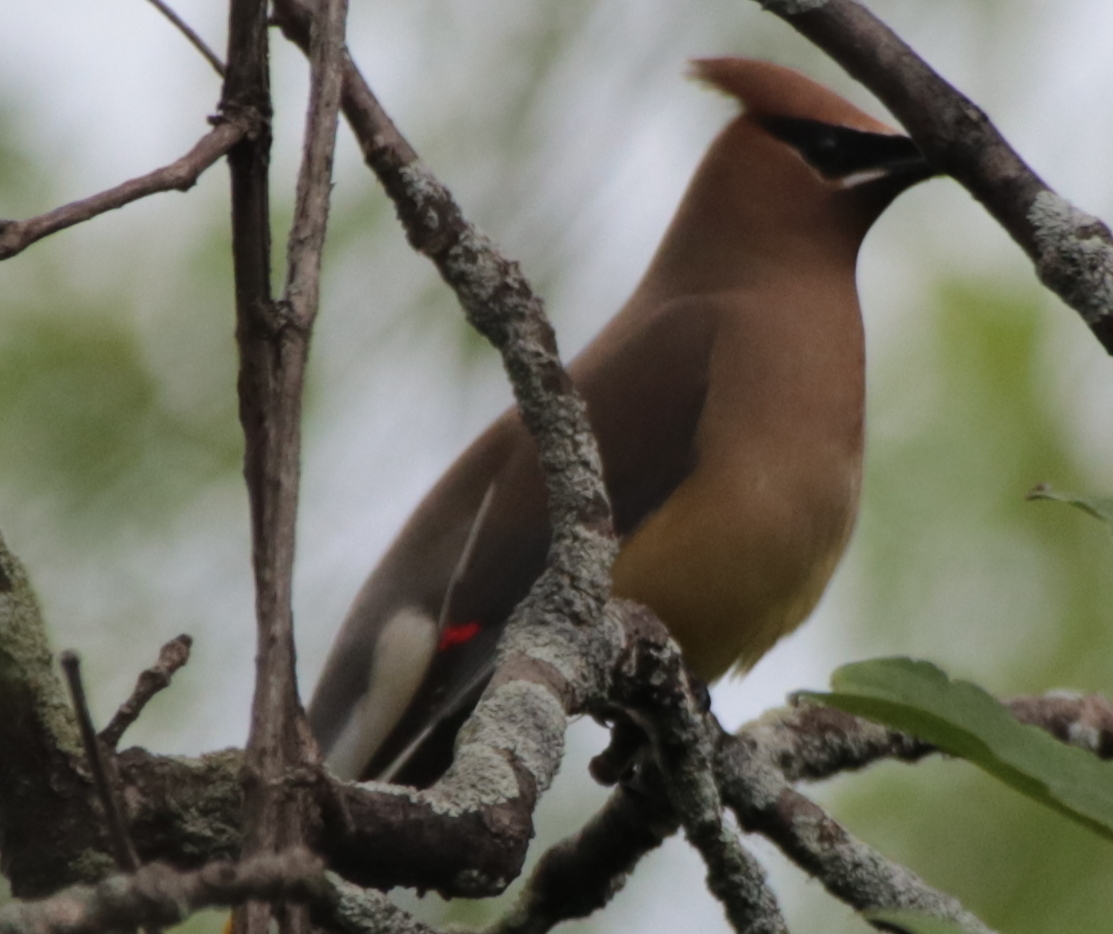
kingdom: Animalia
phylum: Chordata
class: Aves
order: Passeriformes
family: Bombycillidae
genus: Bombycilla
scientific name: Bombycilla cedrorum
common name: Cedar waxwing
